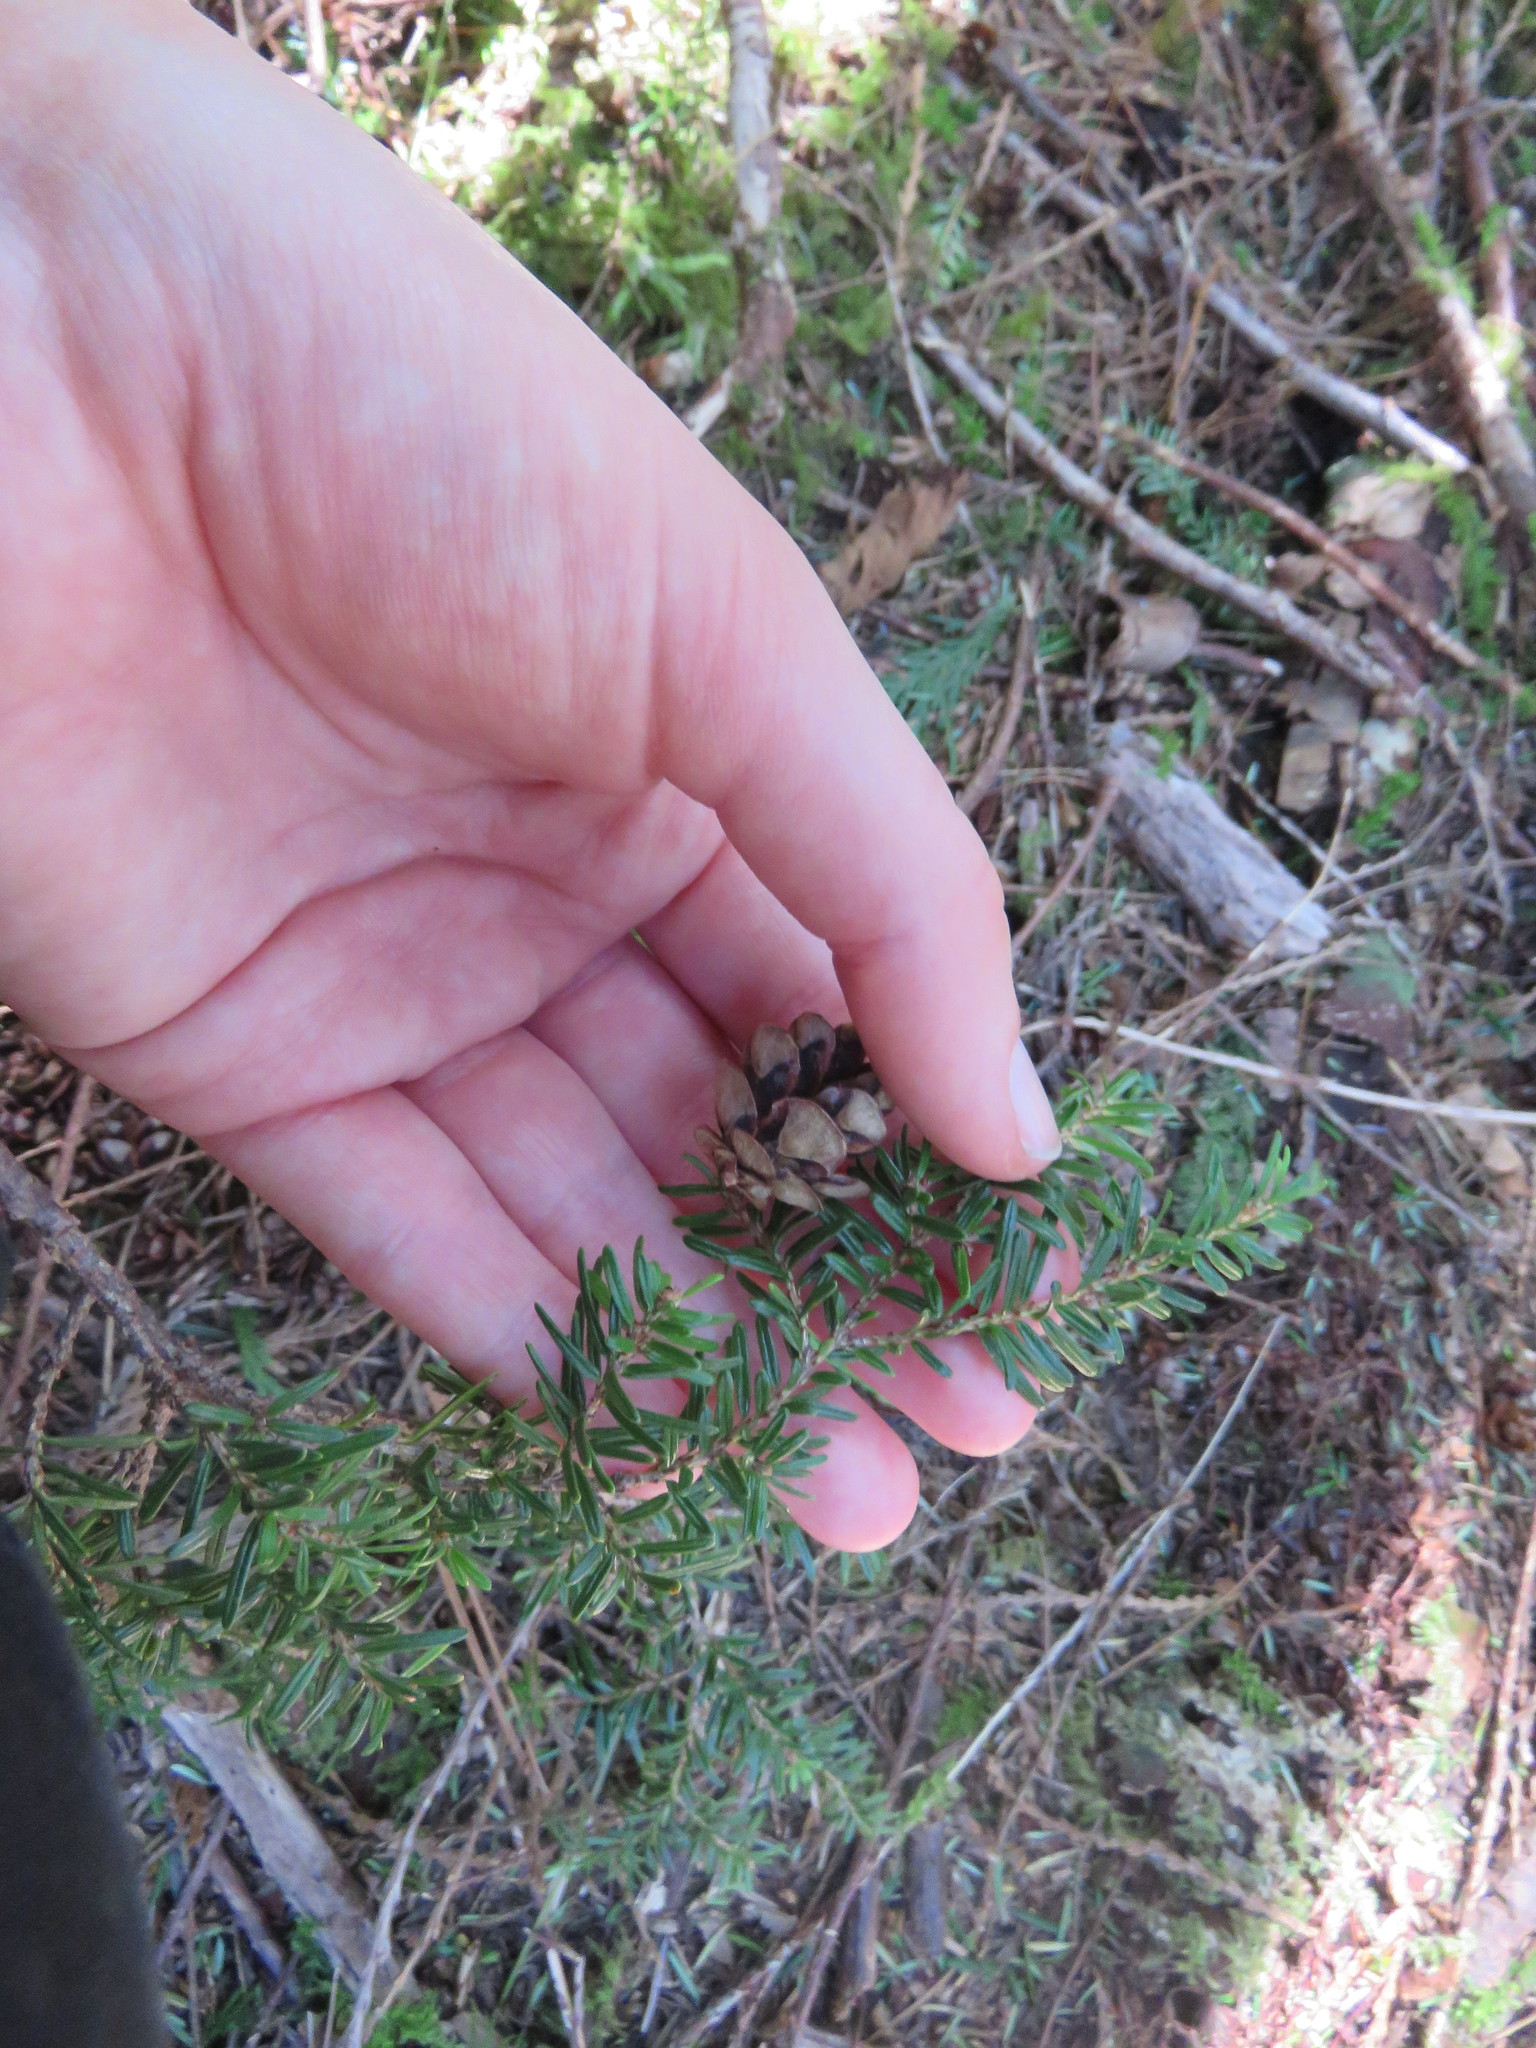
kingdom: Plantae
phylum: Tracheophyta
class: Pinopsida
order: Pinales
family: Pinaceae
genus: Tsuga
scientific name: Tsuga heterophylla
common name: Western hemlock
